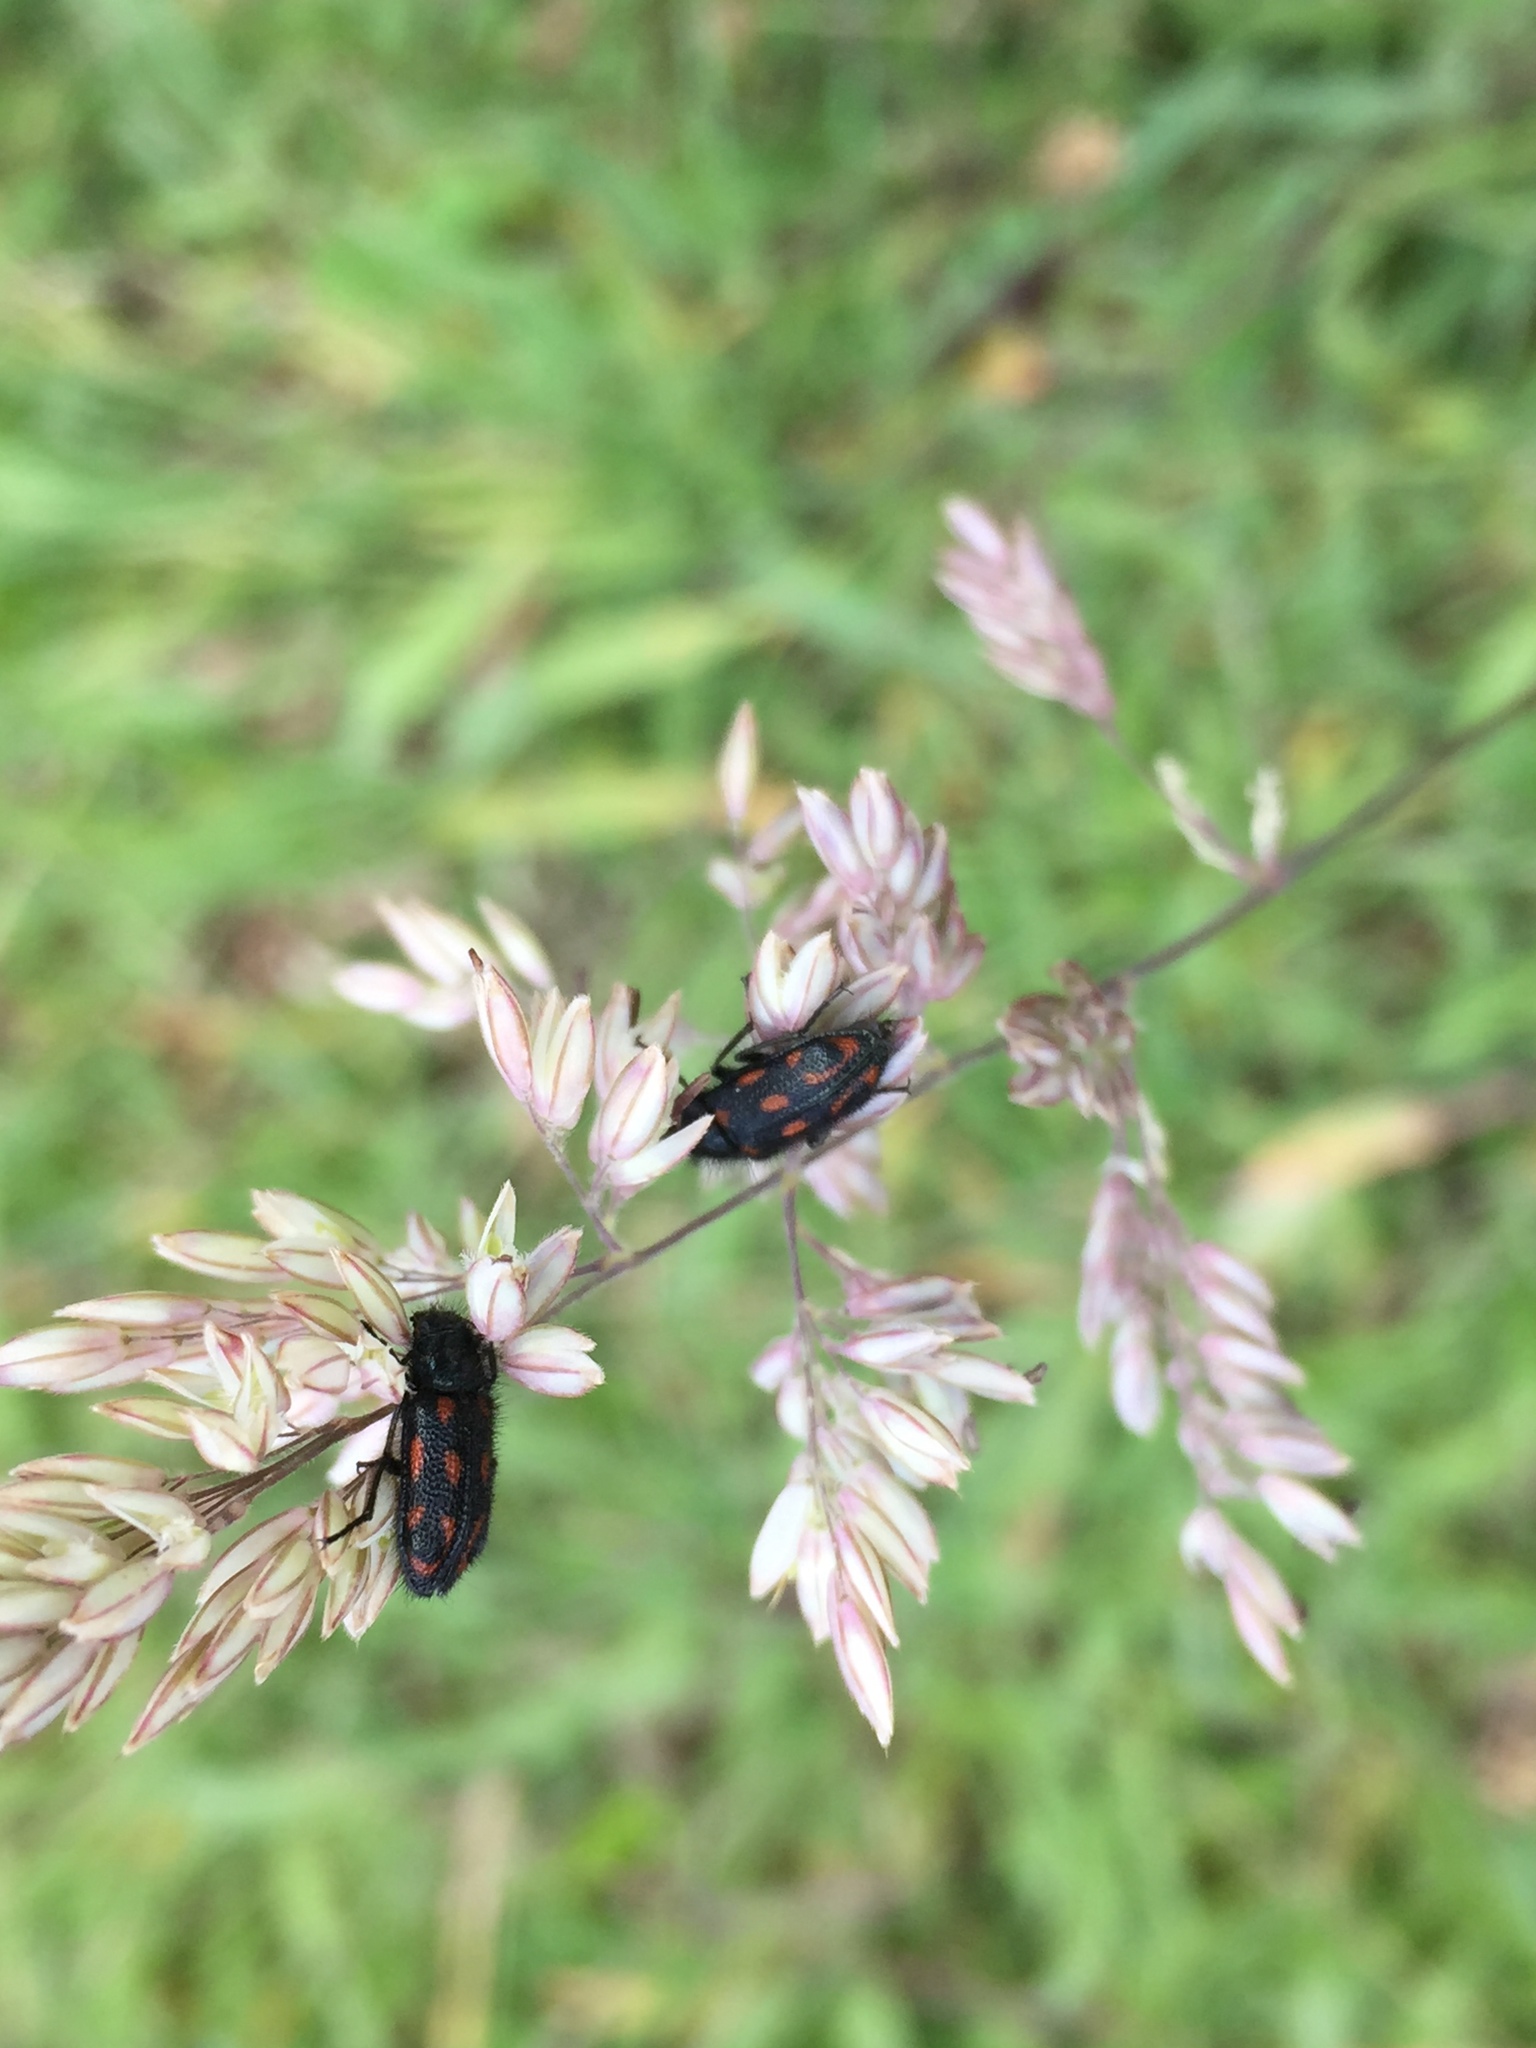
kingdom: Animalia
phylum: Arthropoda
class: Insecta
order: Coleoptera
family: Melyridae
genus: Astylus
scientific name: Astylus
